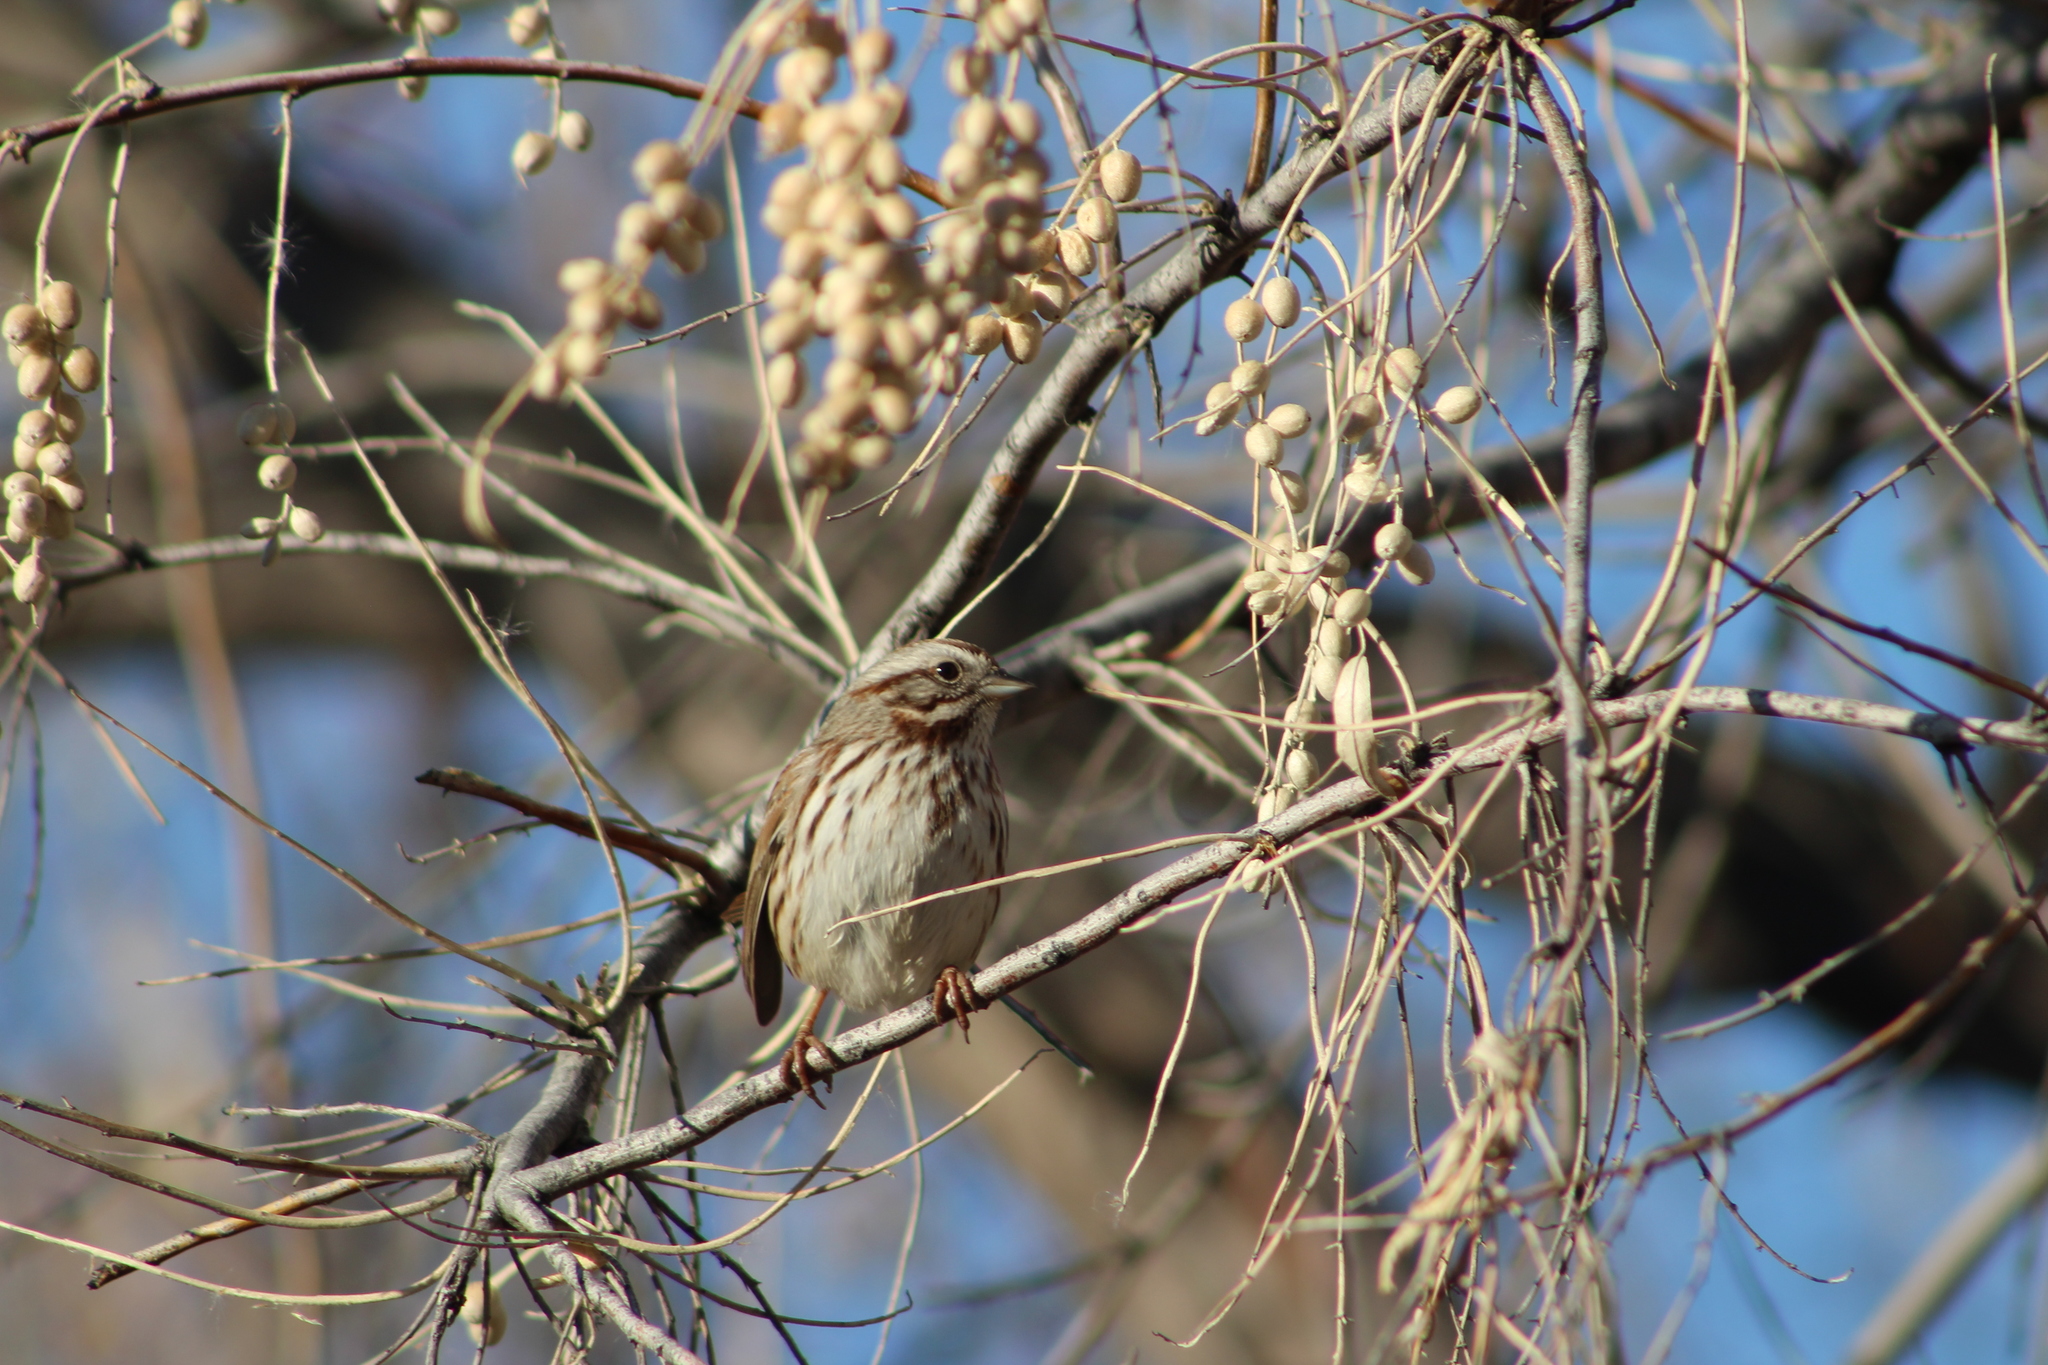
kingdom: Animalia
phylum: Chordata
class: Aves
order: Passeriformes
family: Passerellidae
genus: Melospiza
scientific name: Melospiza melodia
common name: Song sparrow
